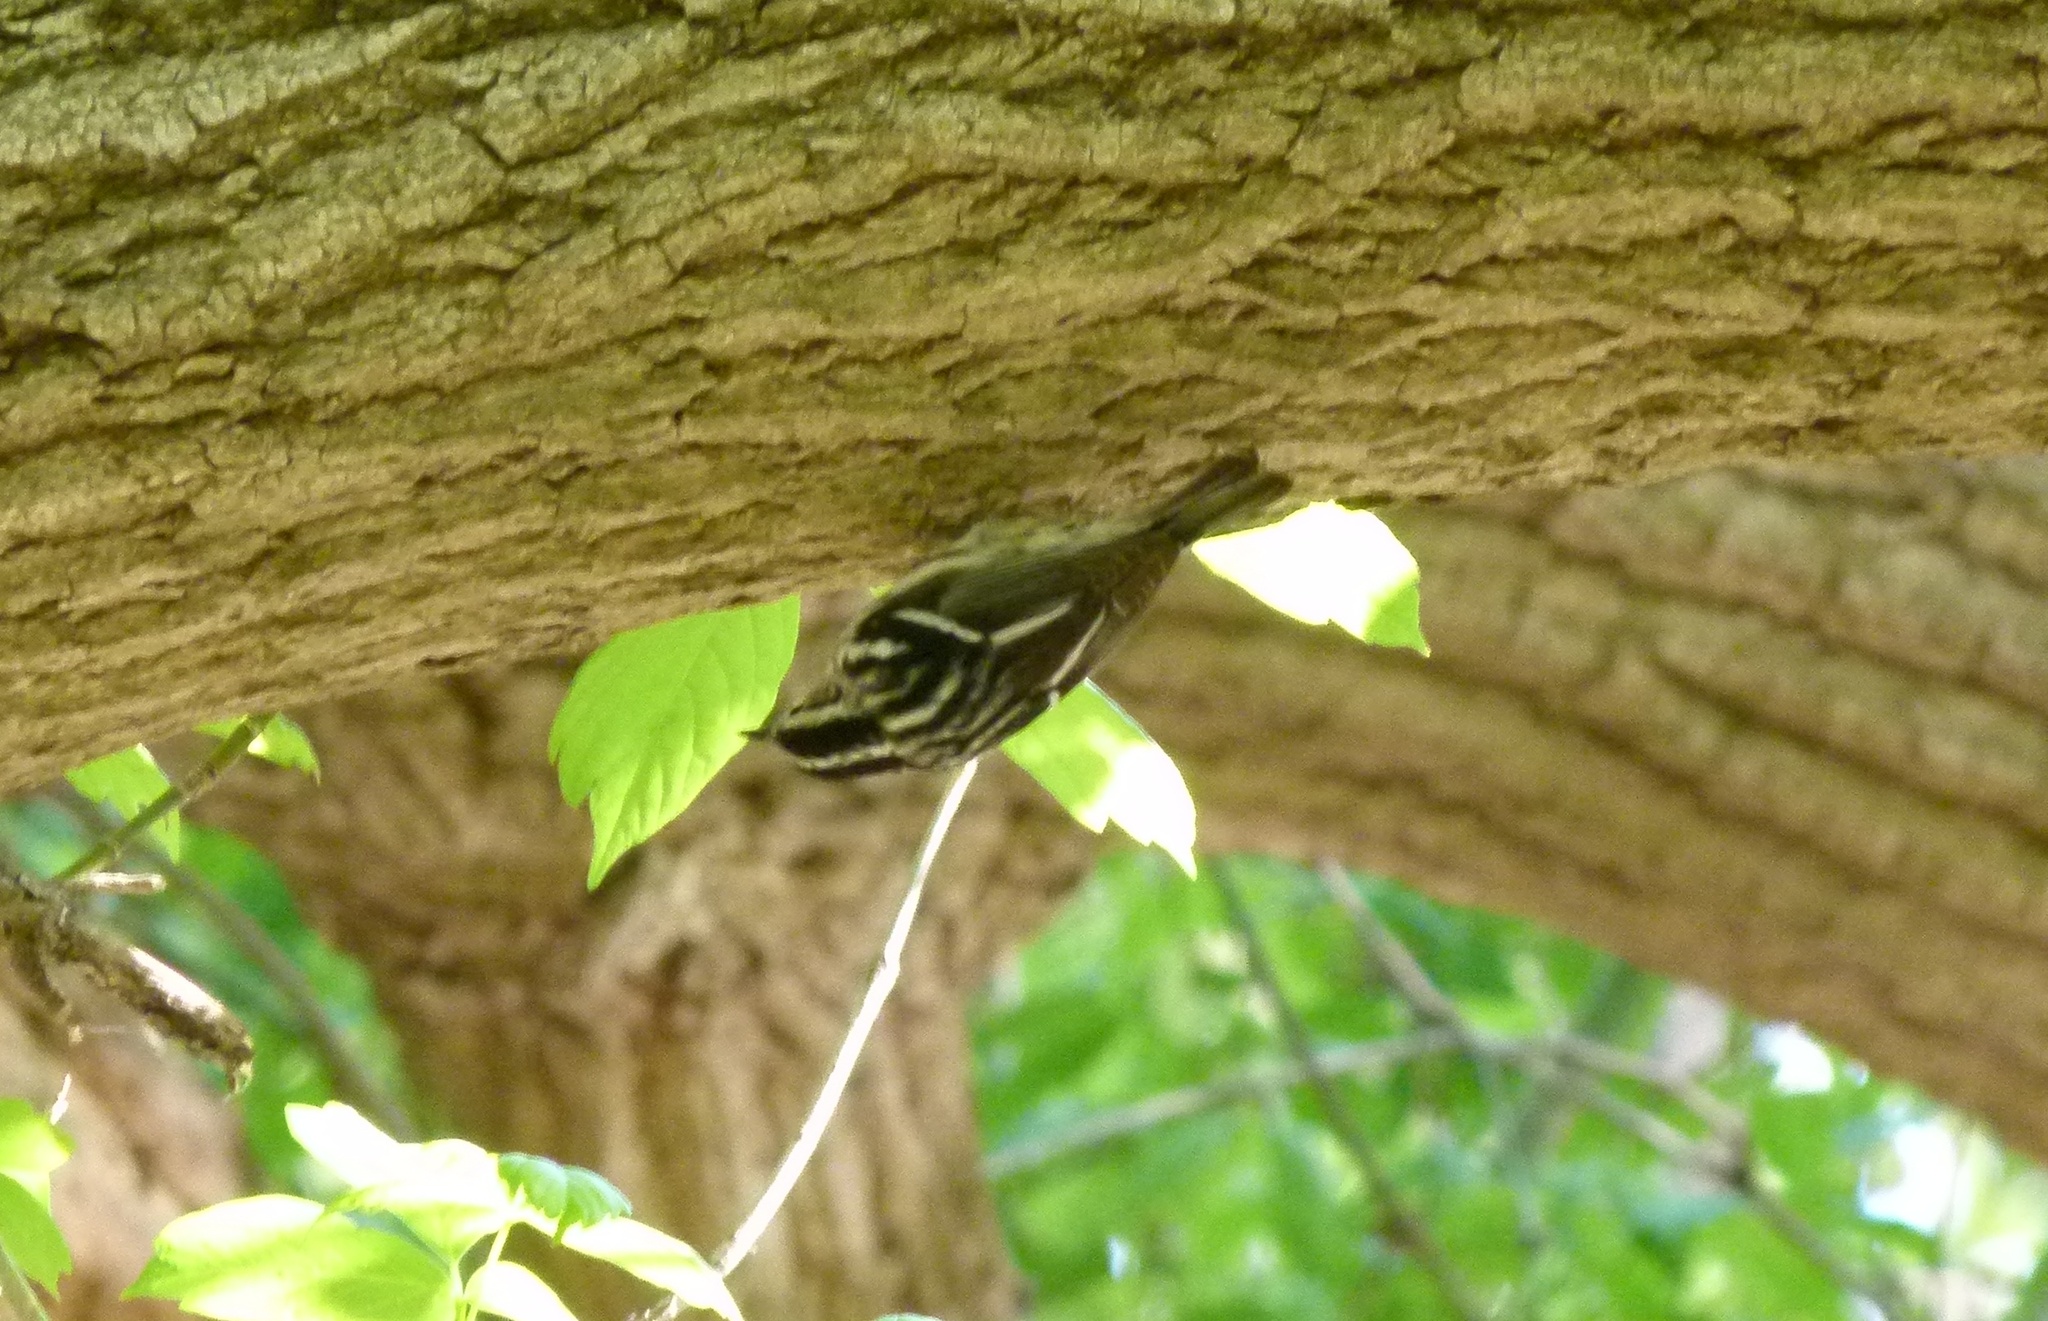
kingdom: Animalia
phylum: Chordata
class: Aves
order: Passeriformes
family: Parulidae
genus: Mniotilta
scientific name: Mniotilta varia
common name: Black-and-white warbler
